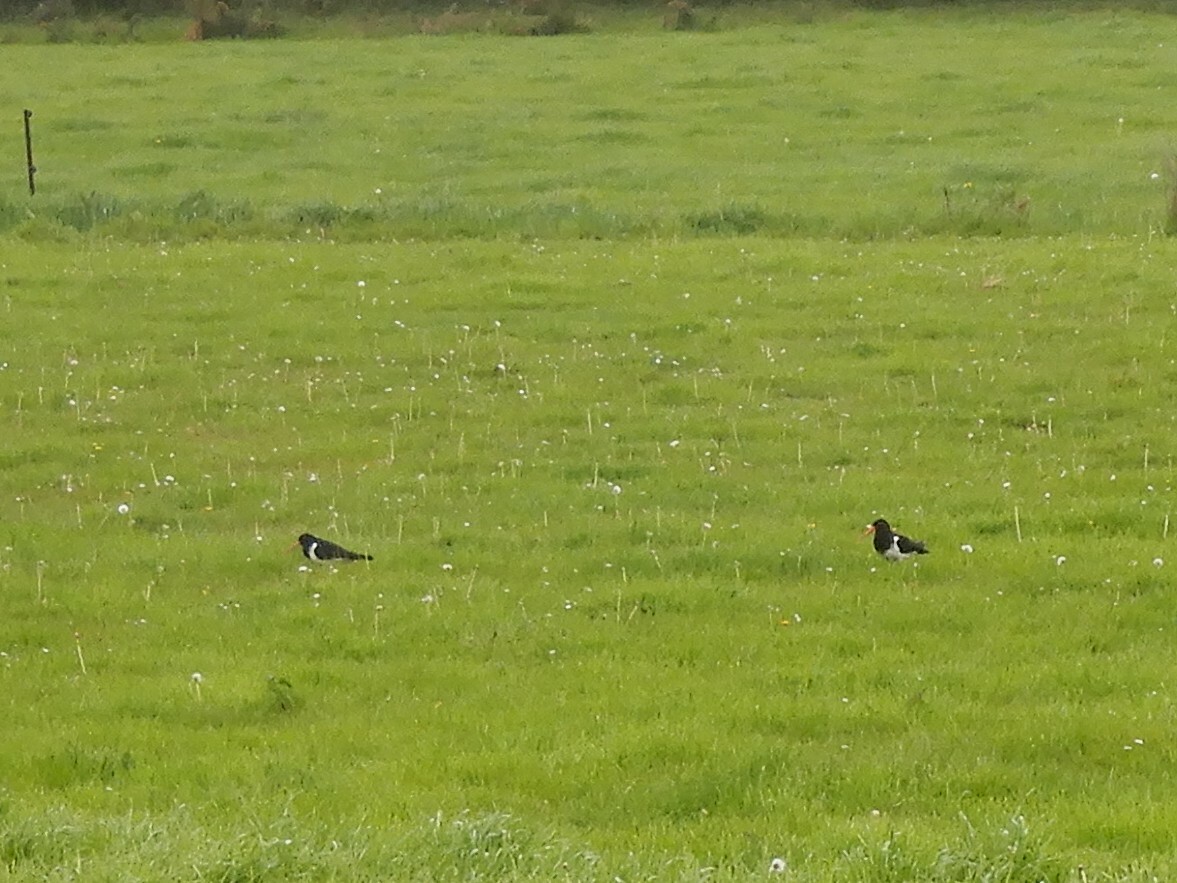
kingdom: Animalia
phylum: Chordata
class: Aves
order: Charadriiformes
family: Haematopodidae
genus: Haematopus
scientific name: Haematopus finschi
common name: South island oystercatcher
